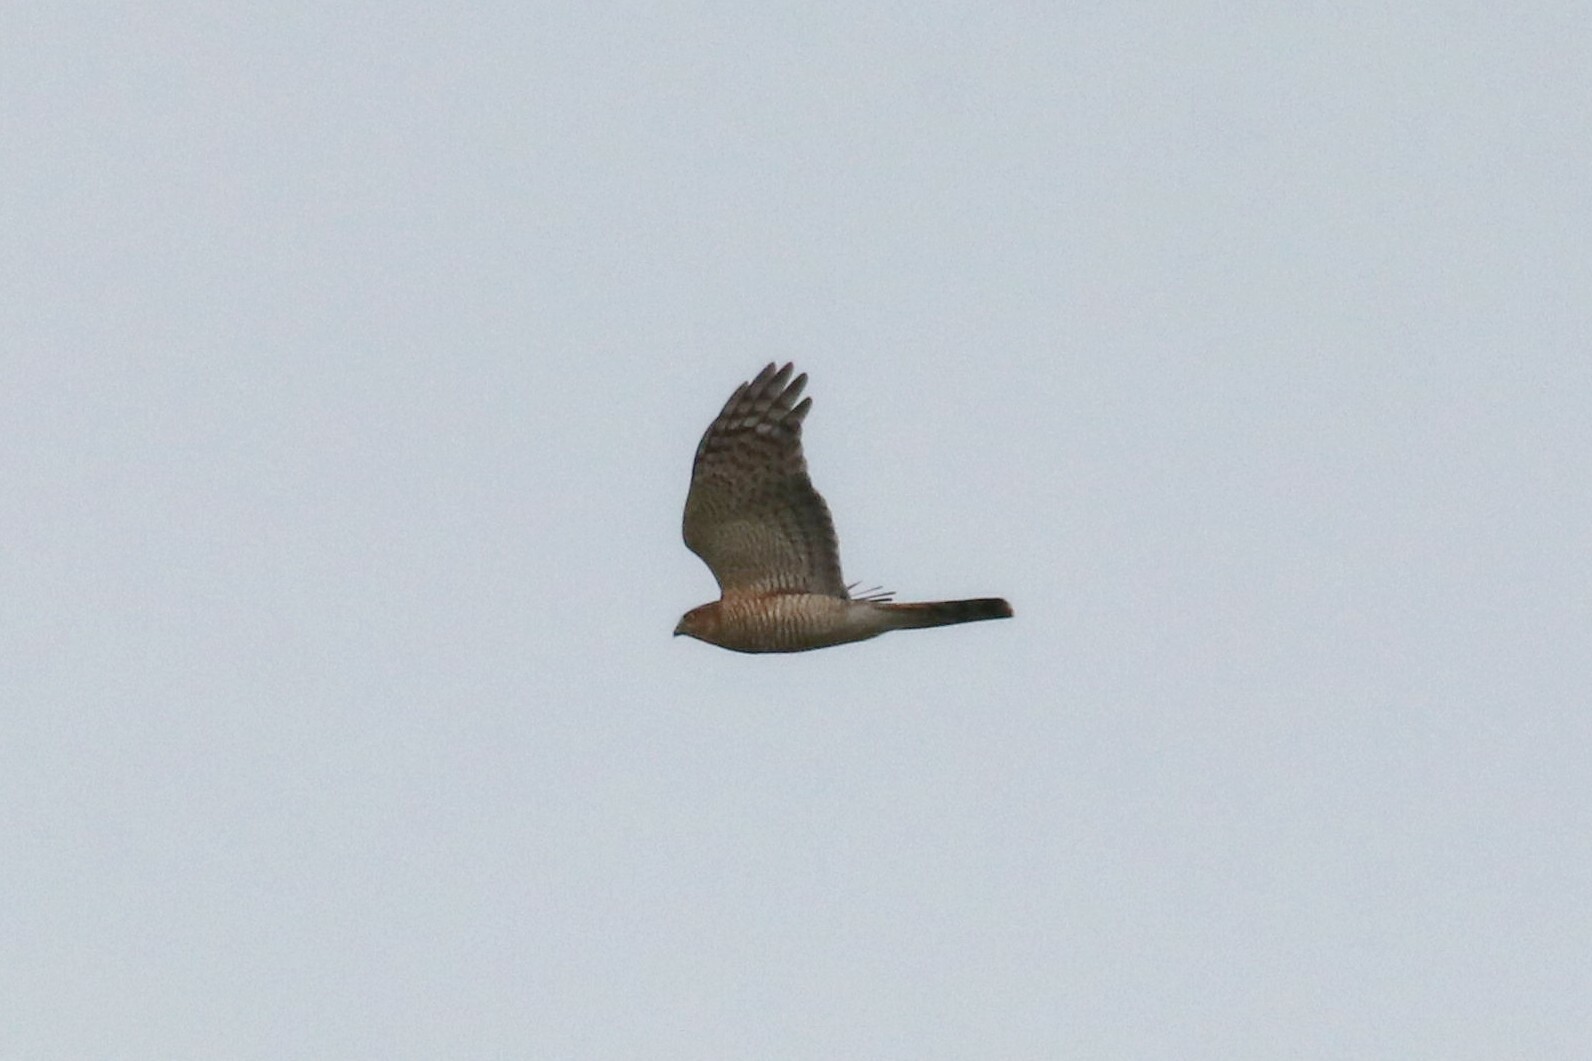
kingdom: Animalia
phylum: Chordata
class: Aves
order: Accipitriformes
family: Accipitridae
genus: Accipiter
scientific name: Accipiter nisus
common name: Eurasian sparrowhawk
